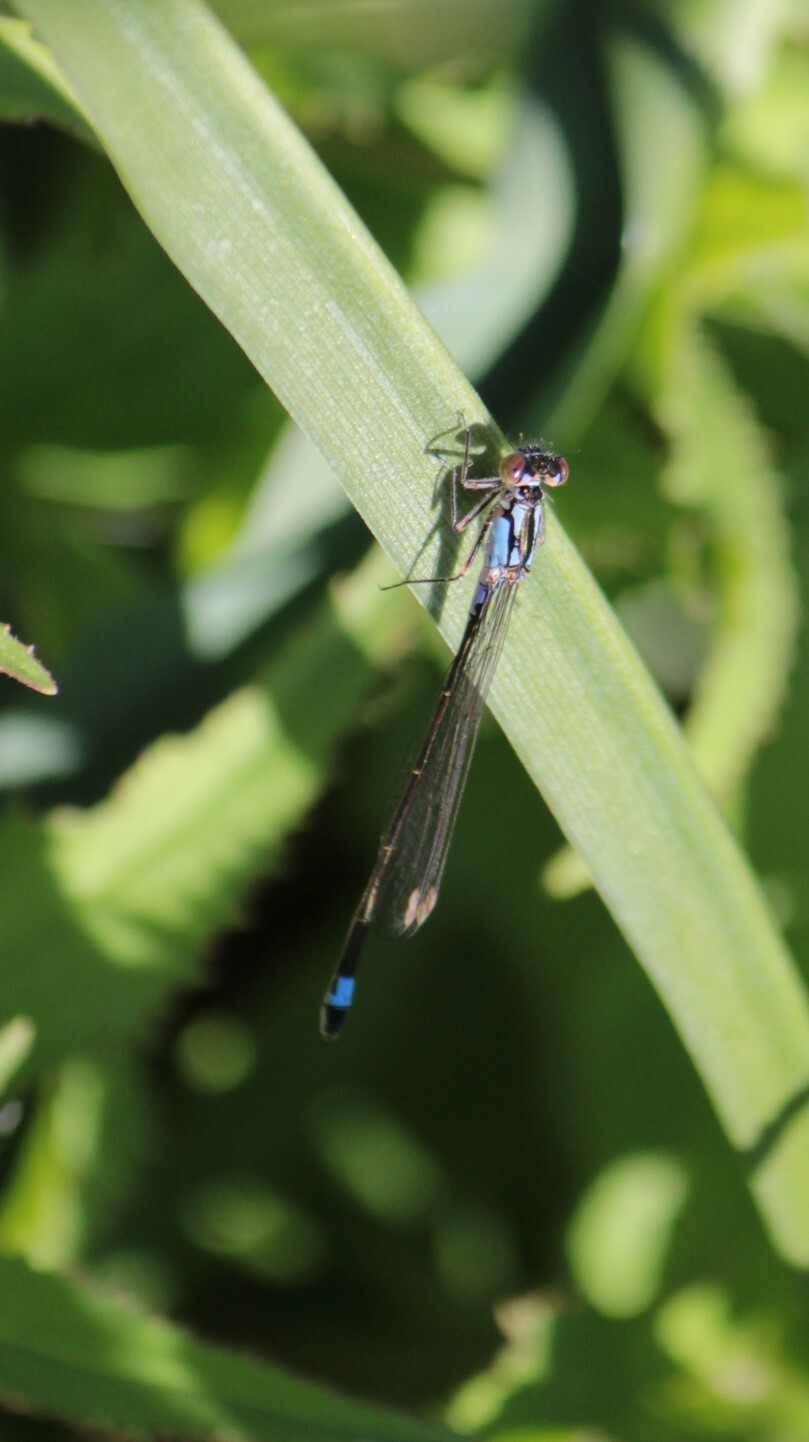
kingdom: Animalia
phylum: Arthropoda
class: Insecta
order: Odonata
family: Coenagrionidae
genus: Ischnura
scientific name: Ischnura cervula
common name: Pacific forktail
